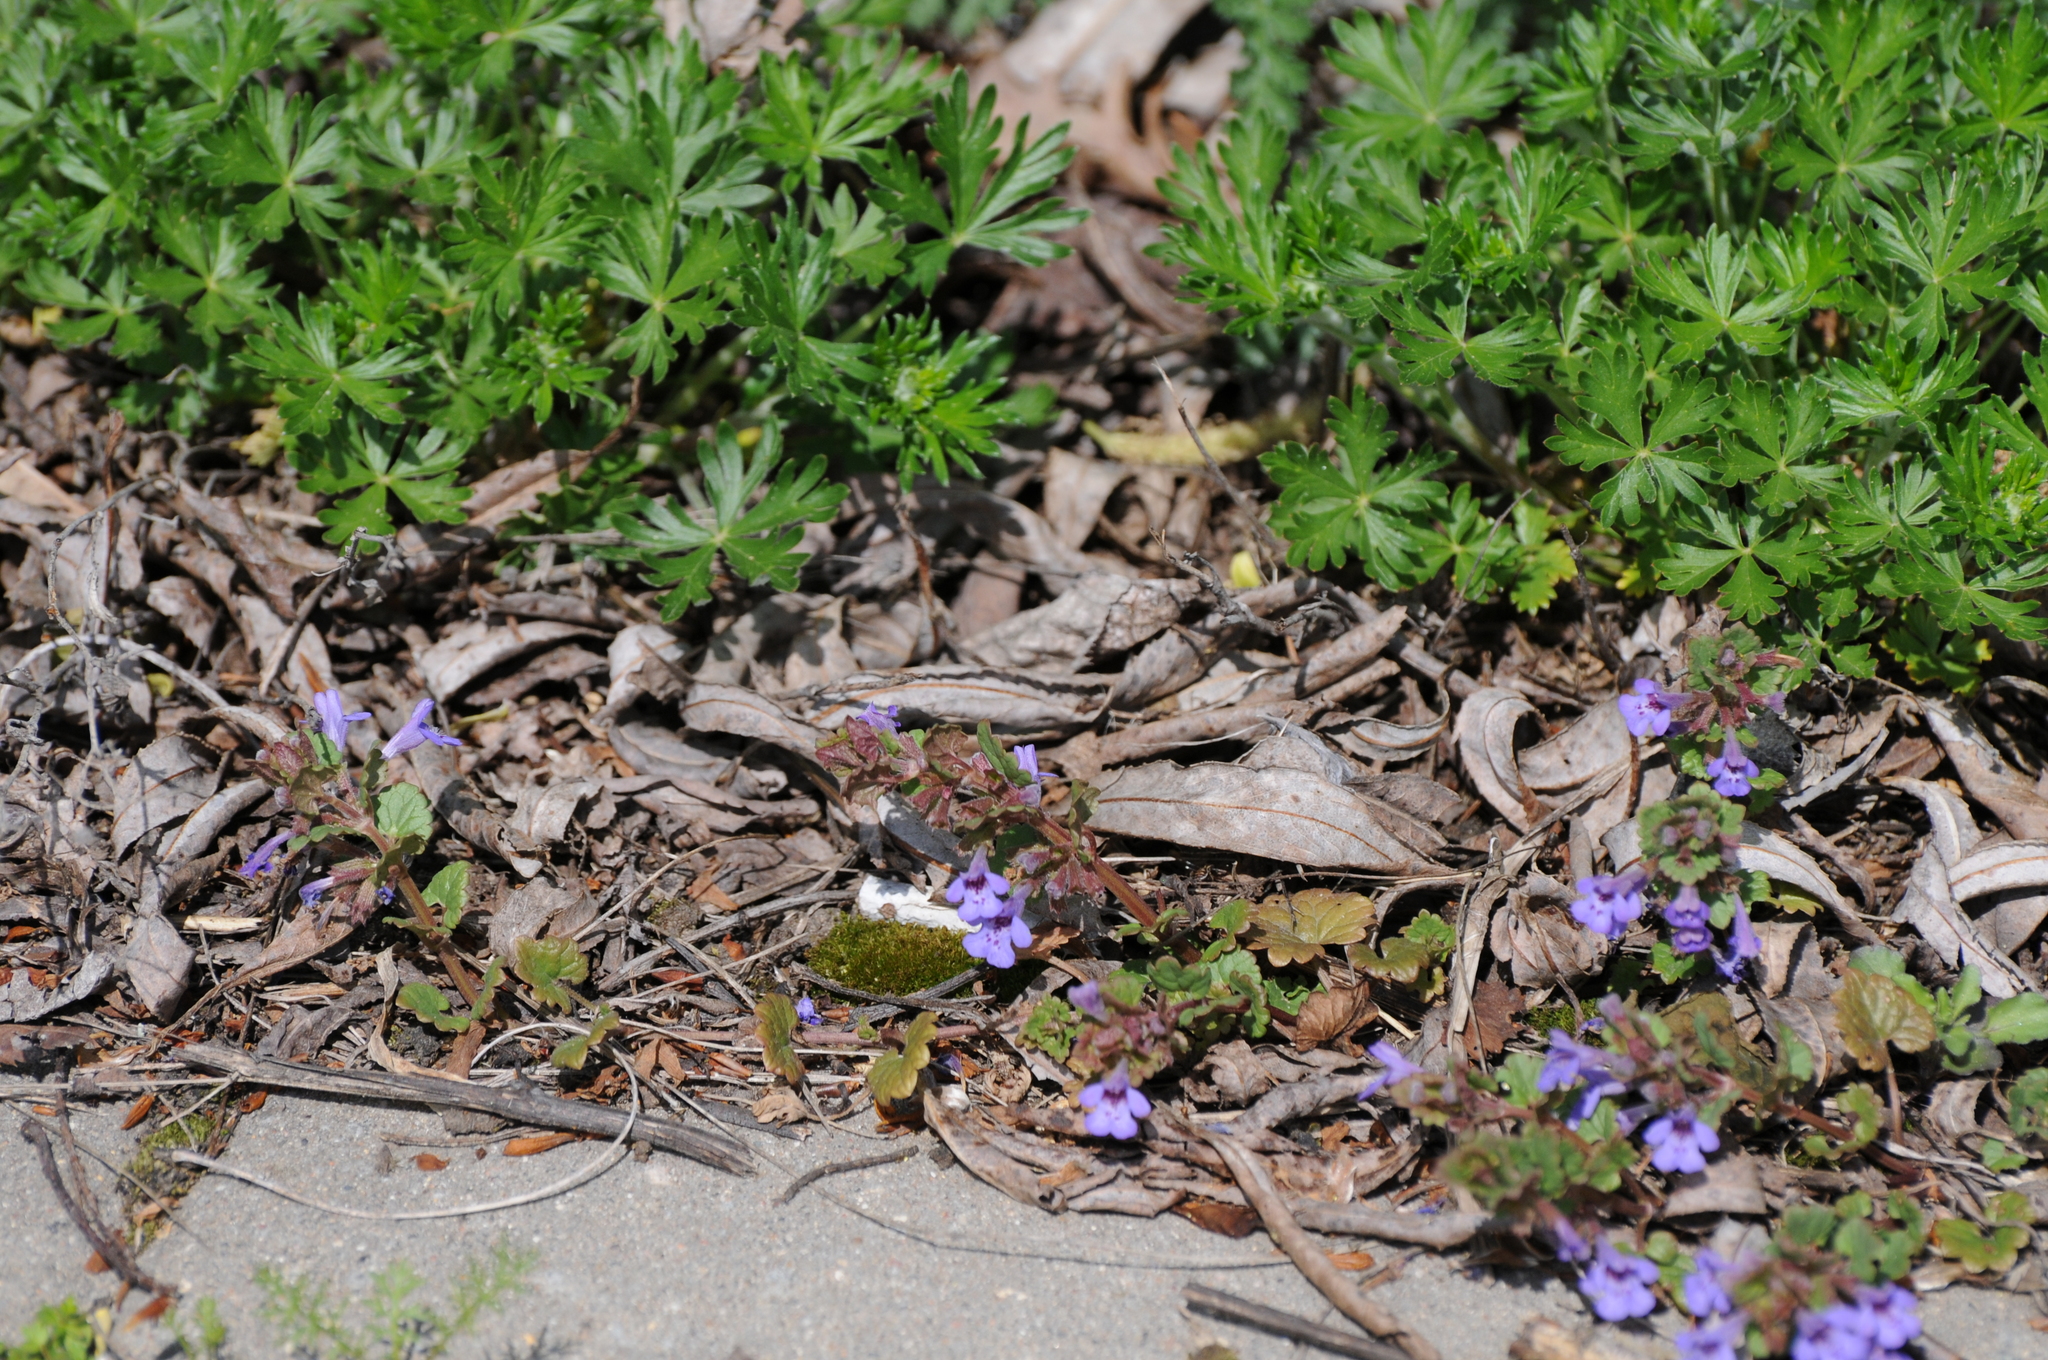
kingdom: Plantae
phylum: Tracheophyta
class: Magnoliopsida
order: Lamiales
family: Lamiaceae
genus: Glechoma
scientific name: Glechoma hederacea
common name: Ground ivy
